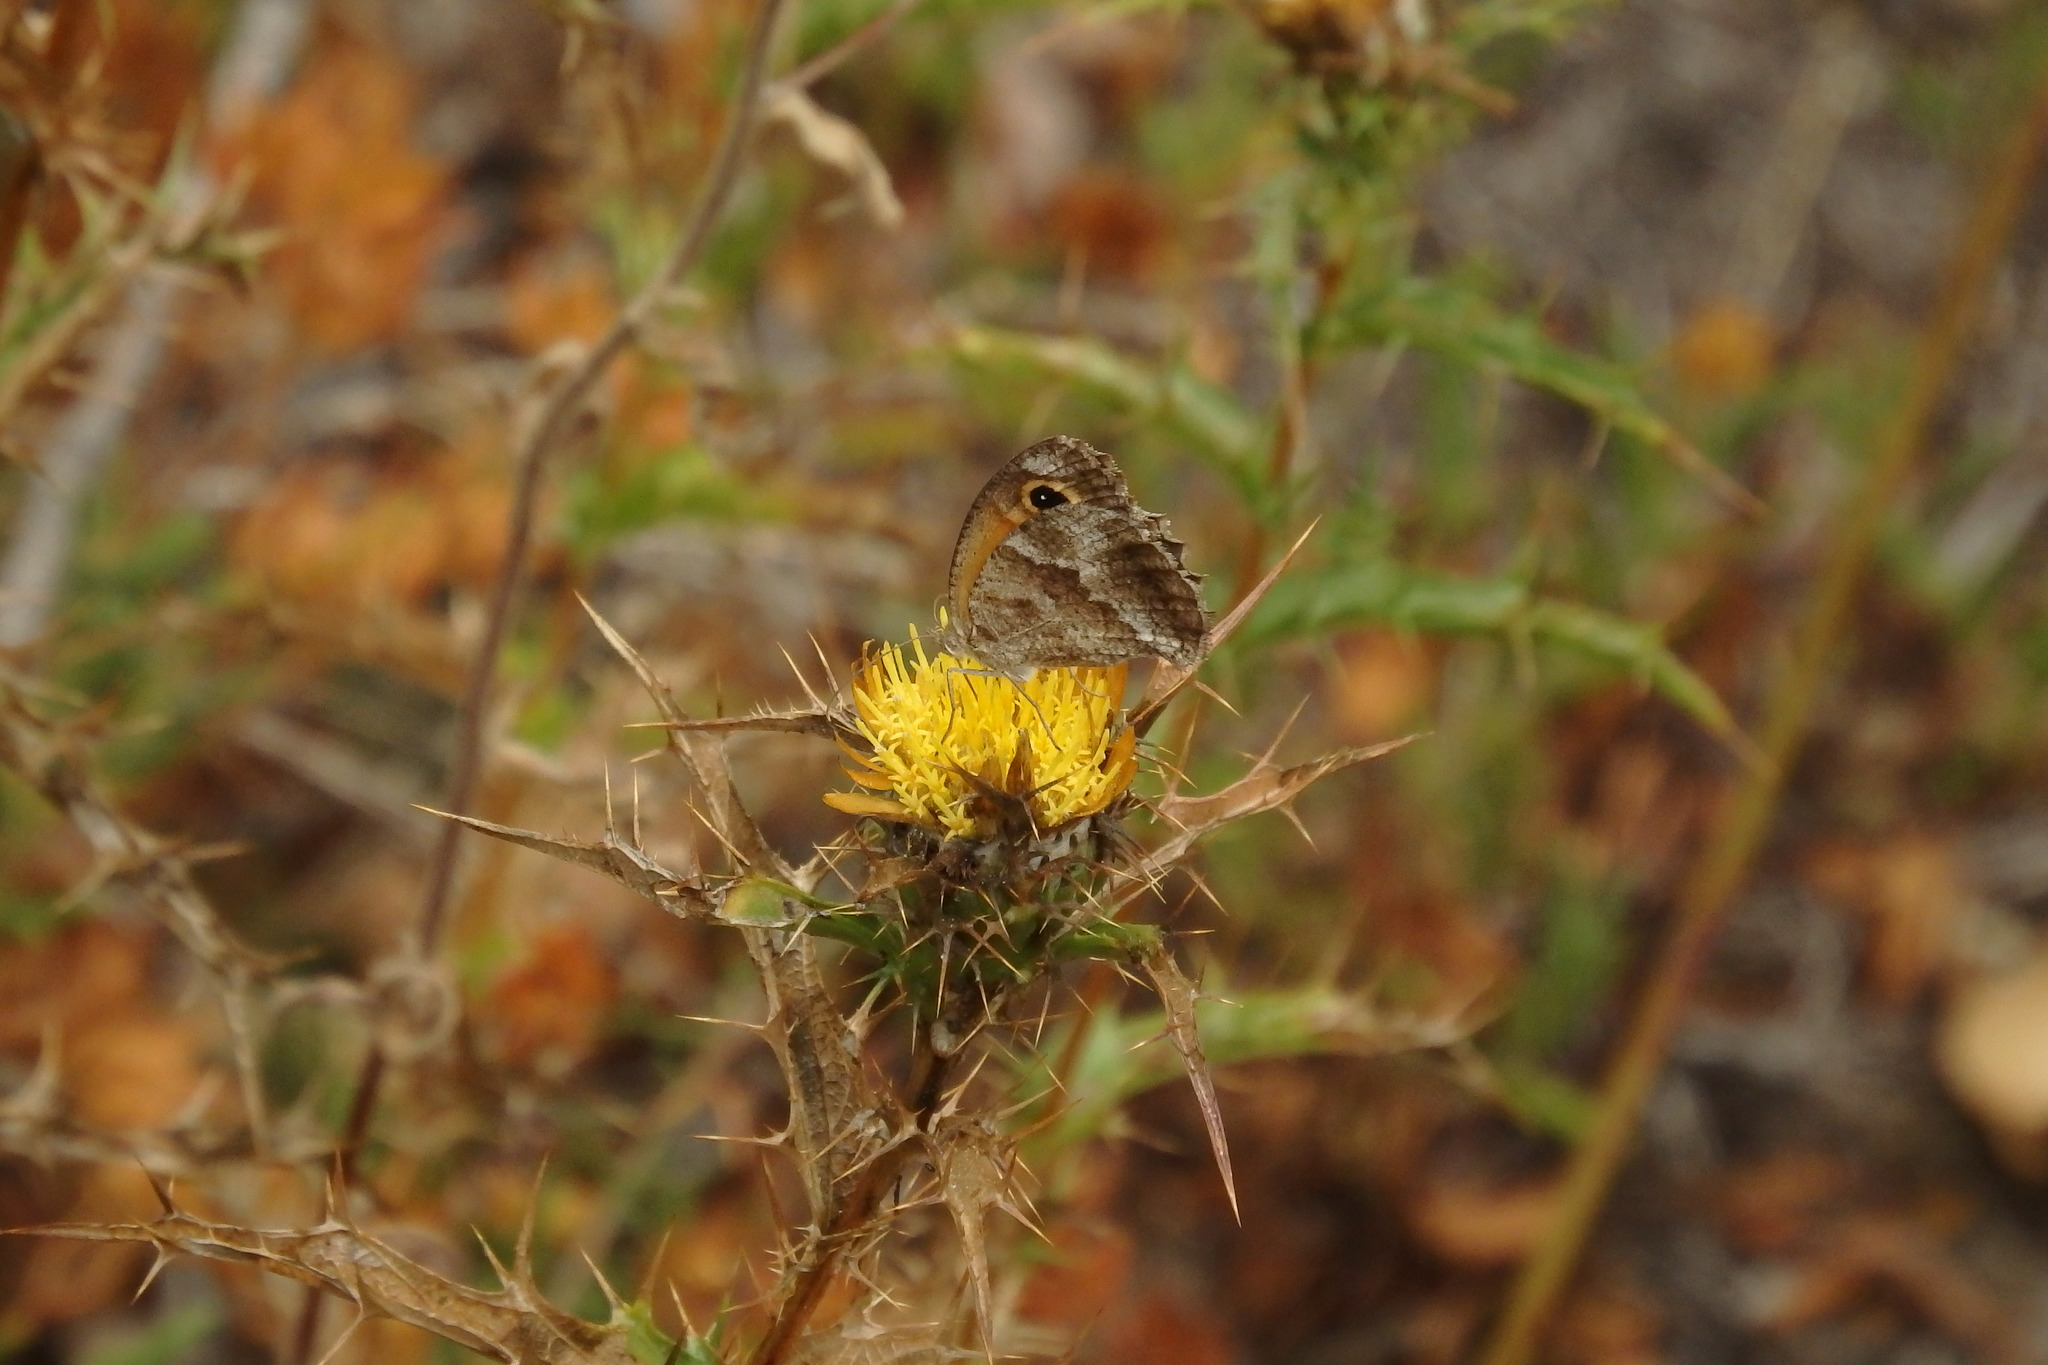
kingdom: Animalia
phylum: Arthropoda
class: Insecta
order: Lepidoptera
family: Nymphalidae
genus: Pyronia
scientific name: Pyronia cecilia
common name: Southern gatekeeper
